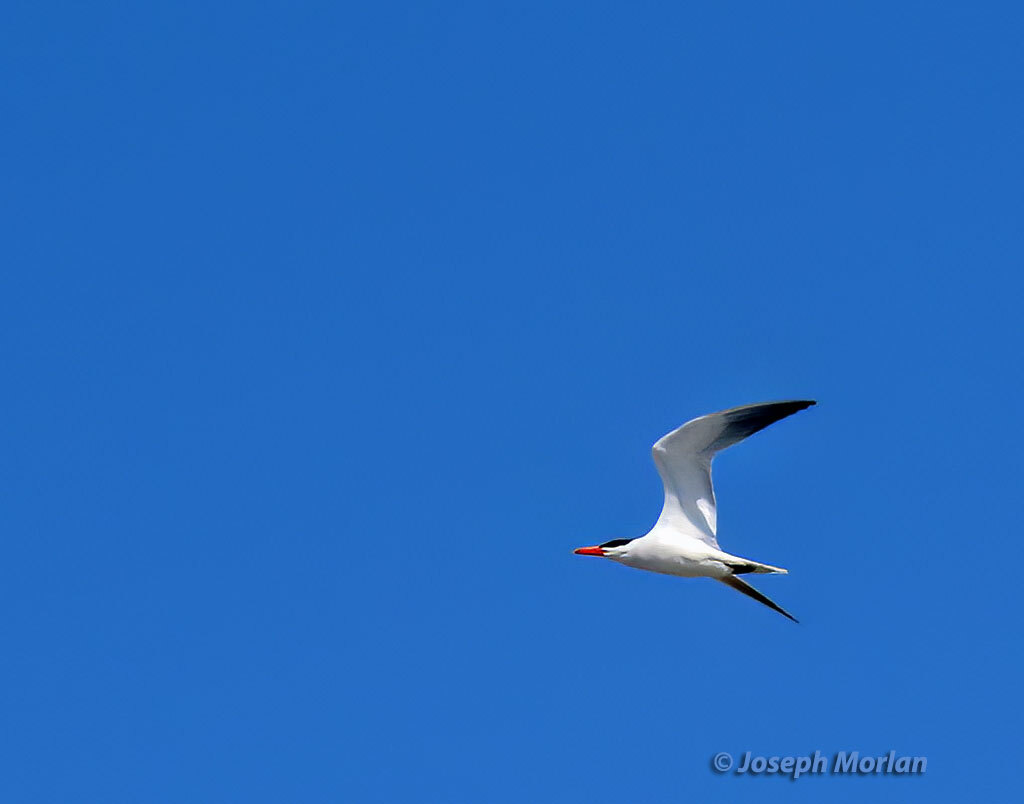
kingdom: Animalia
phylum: Chordata
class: Aves
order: Charadriiformes
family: Laridae
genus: Hydroprogne
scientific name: Hydroprogne caspia
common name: Caspian tern
